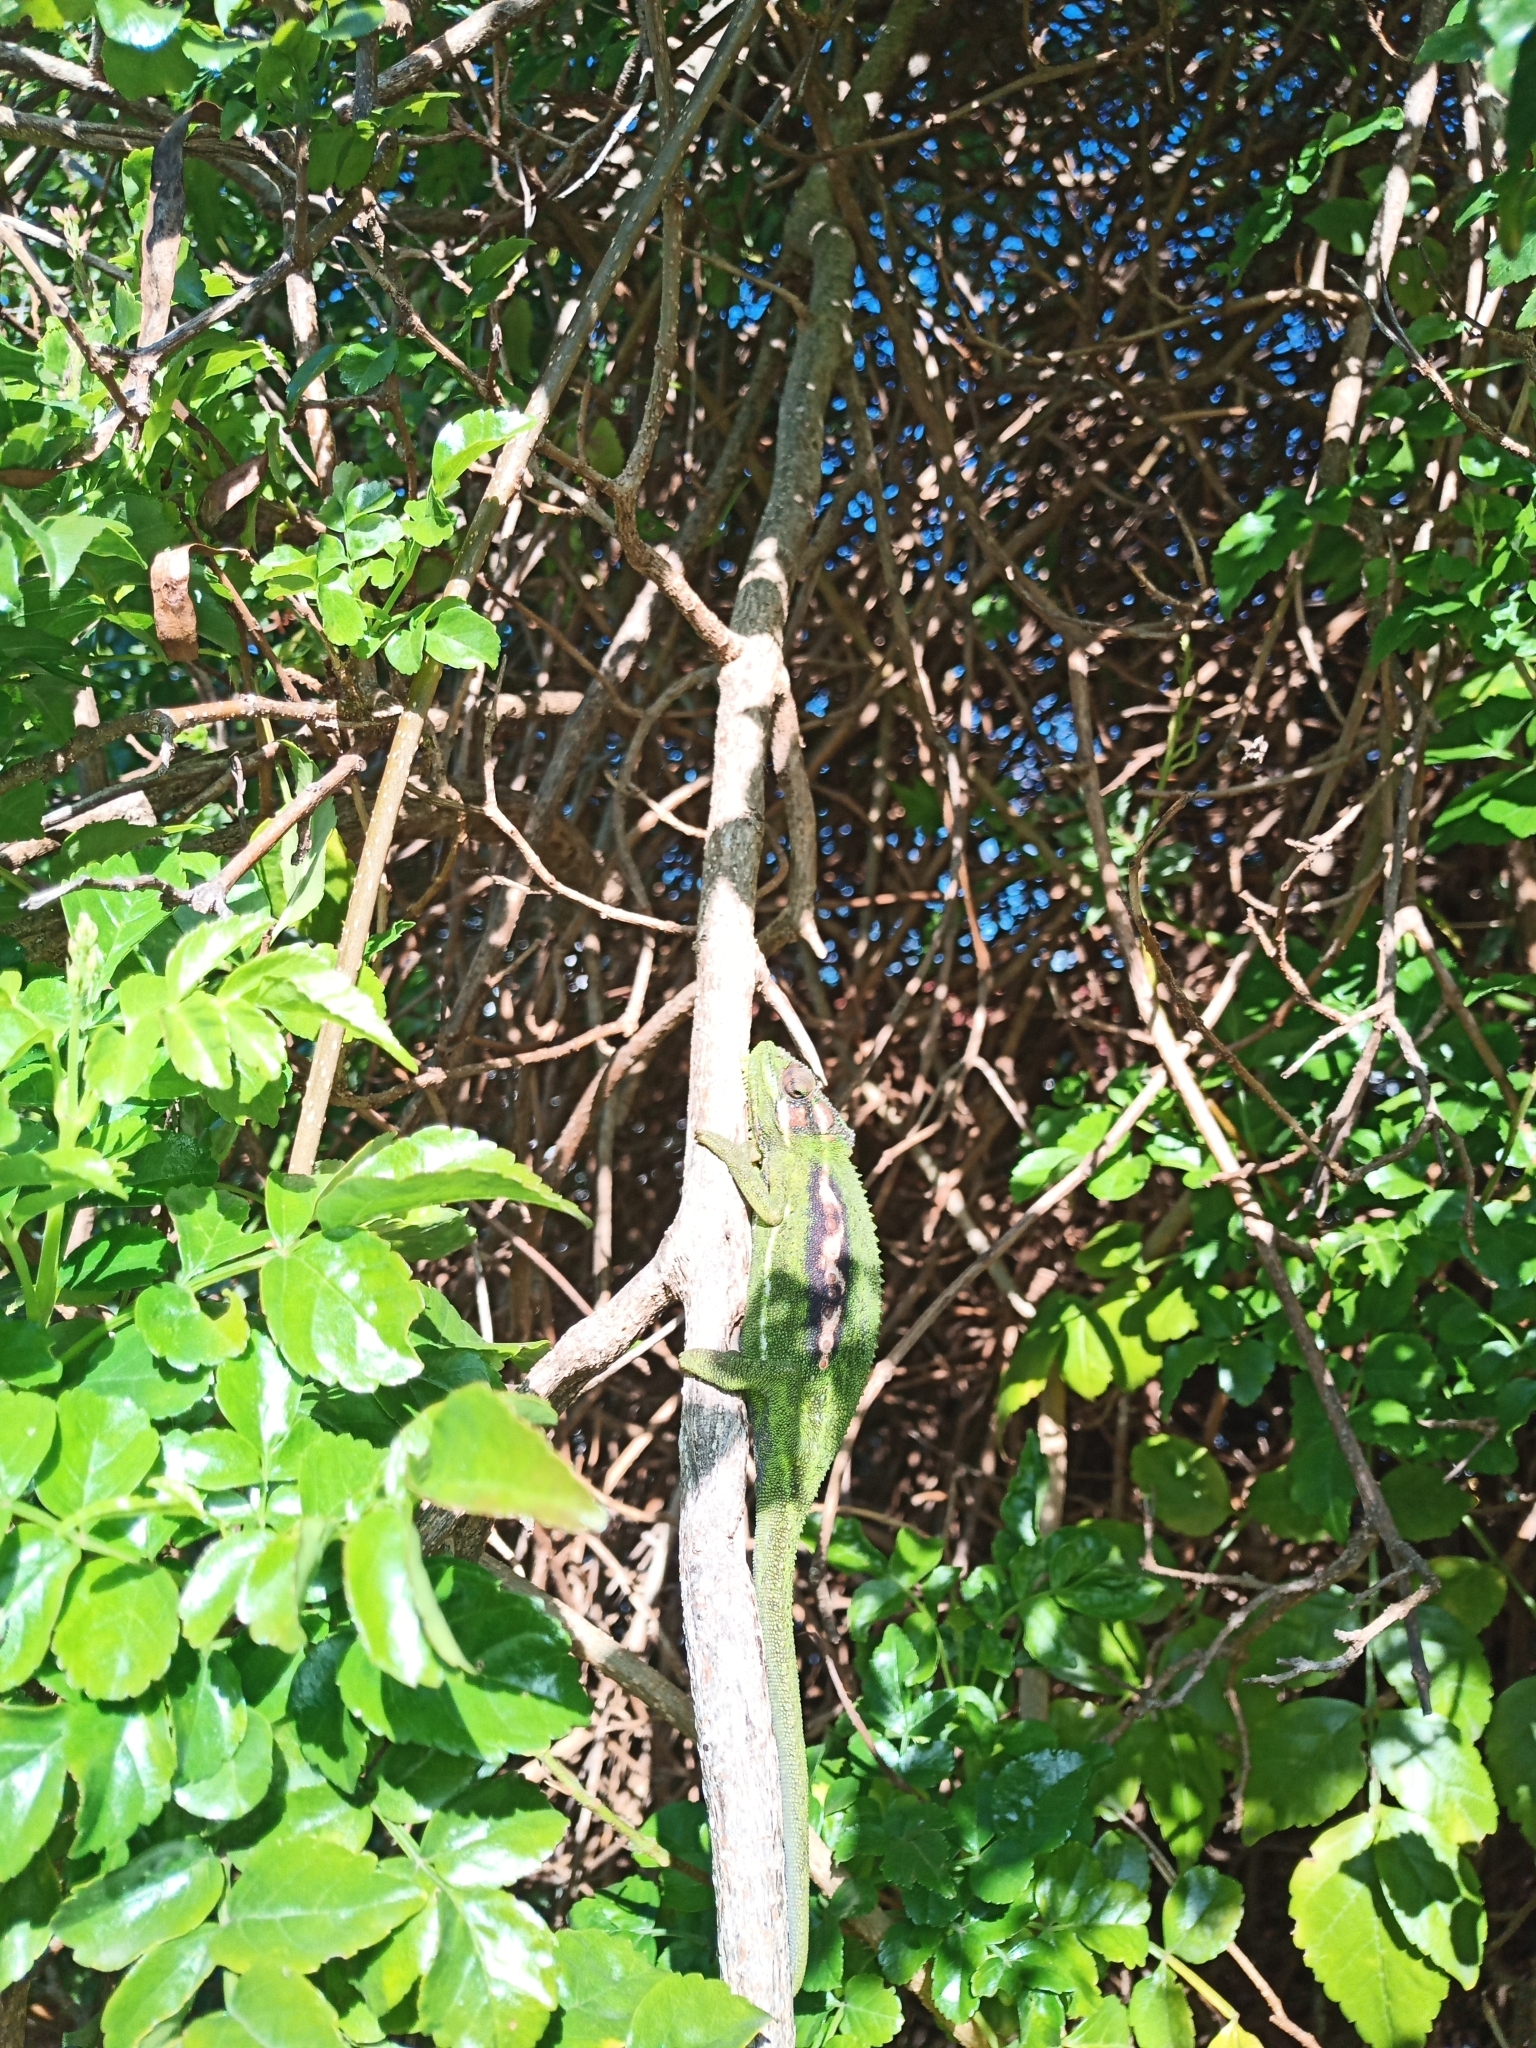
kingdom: Animalia
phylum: Chordata
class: Squamata
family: Chamaeleonidae
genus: Bradypodion
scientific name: Bradypodion pumilum
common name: Cape dwarf chameleon
